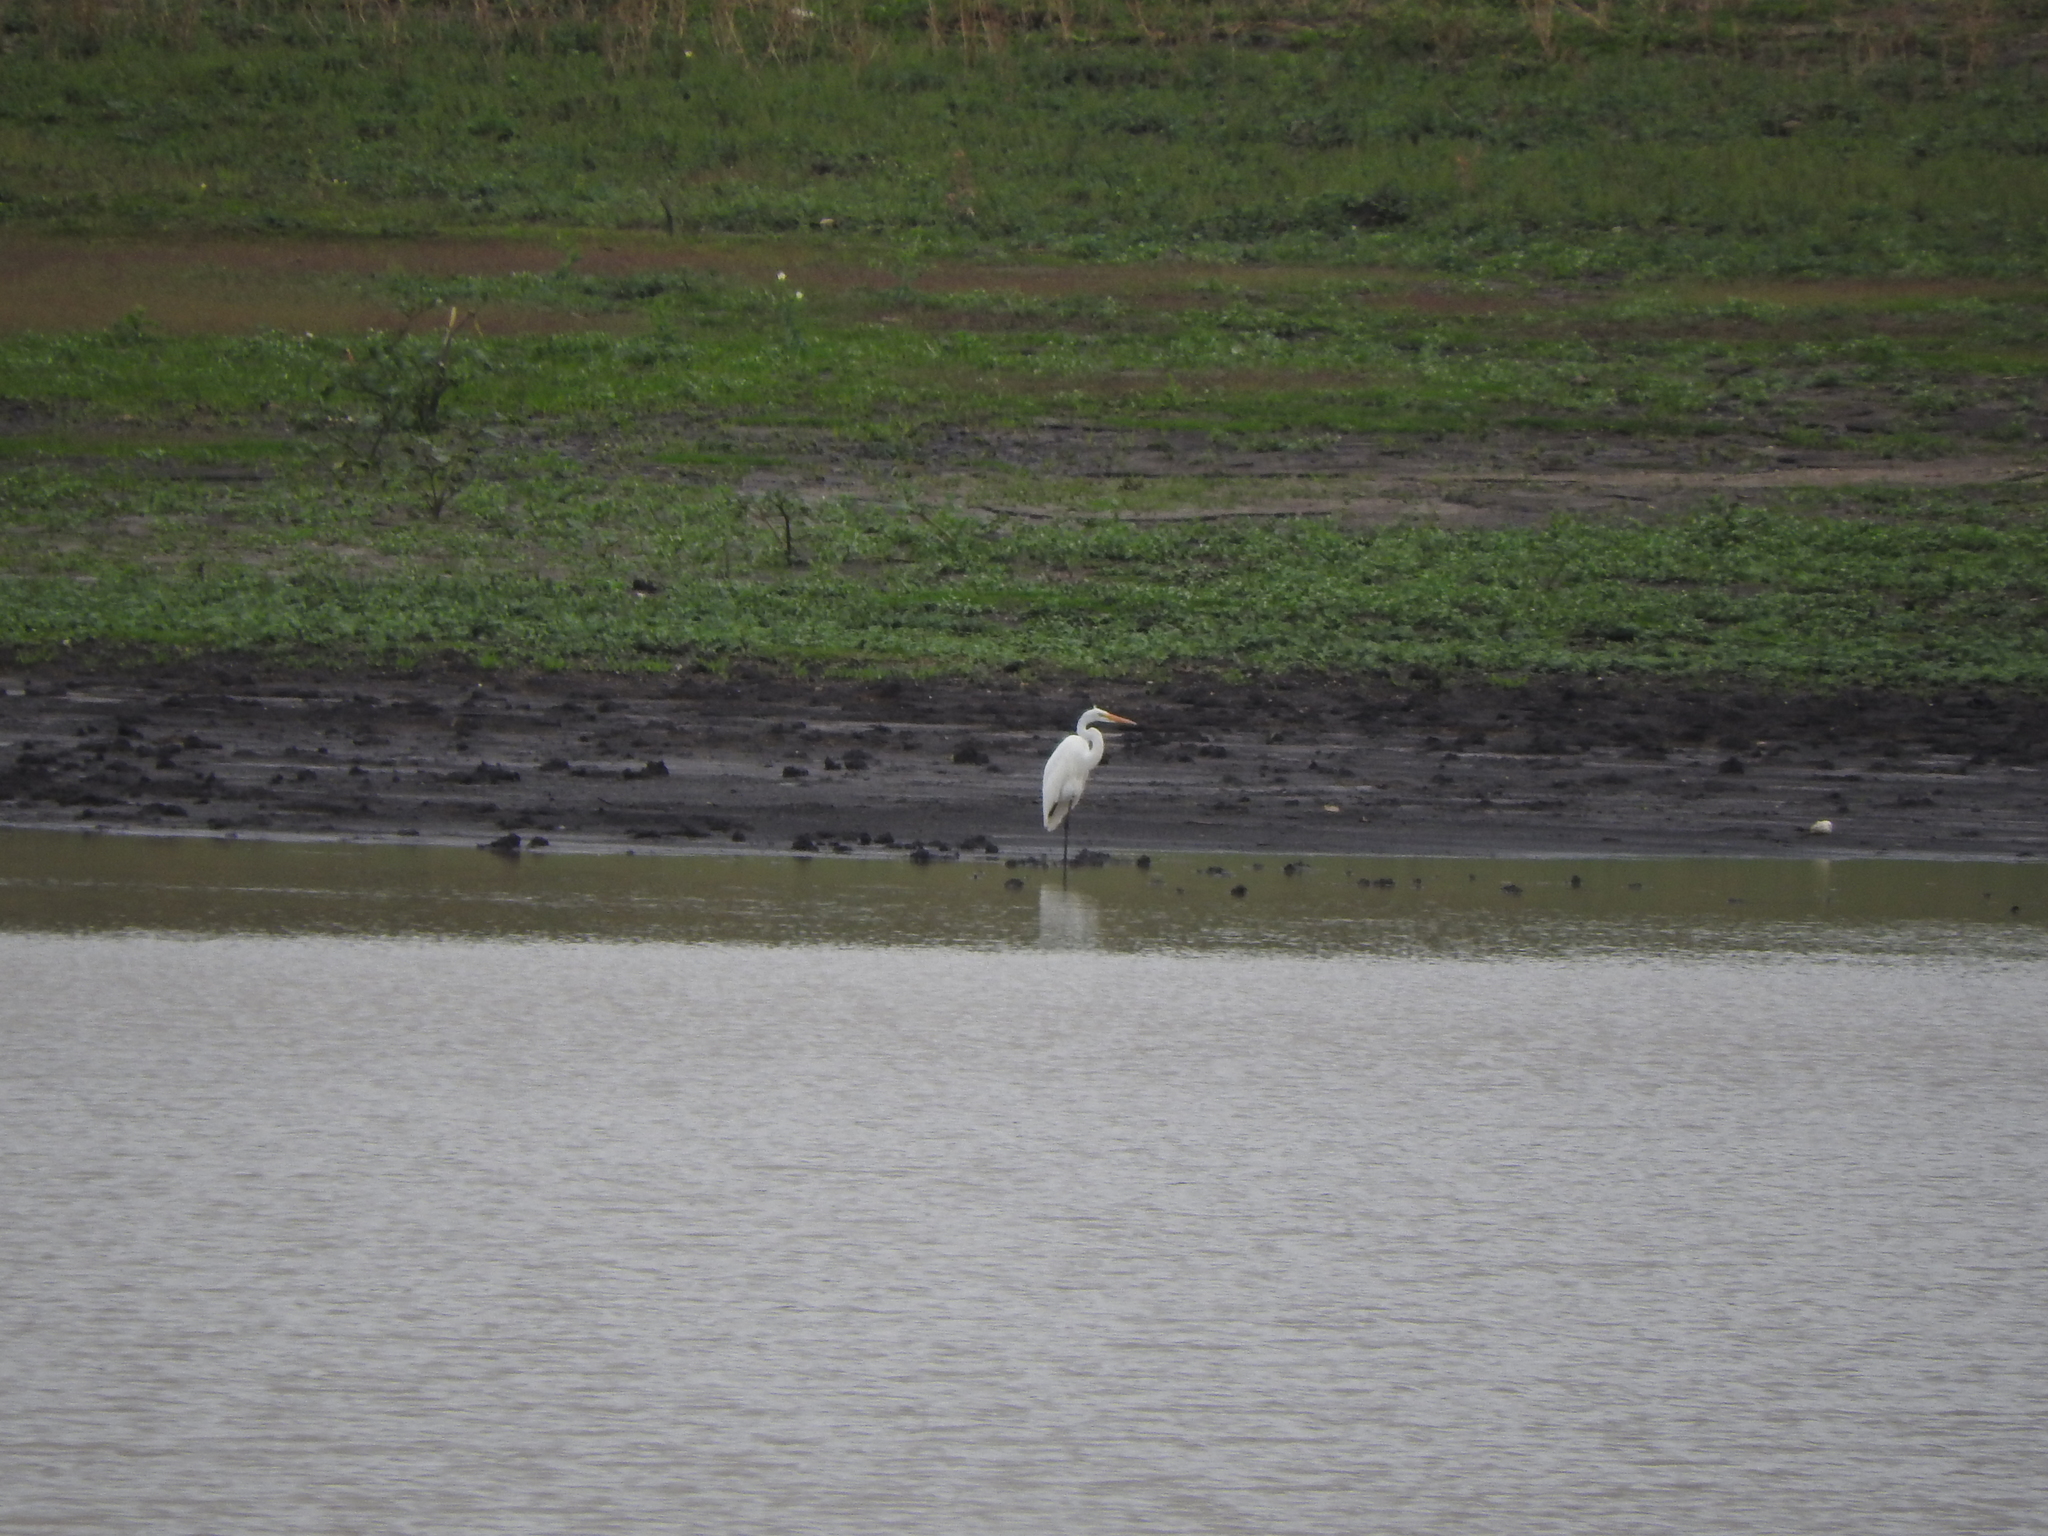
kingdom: Animalia
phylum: Chordata
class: Aves
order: Pelecaniformes
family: Ardeidae
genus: Ardea
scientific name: Ardea alba
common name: Great egret
